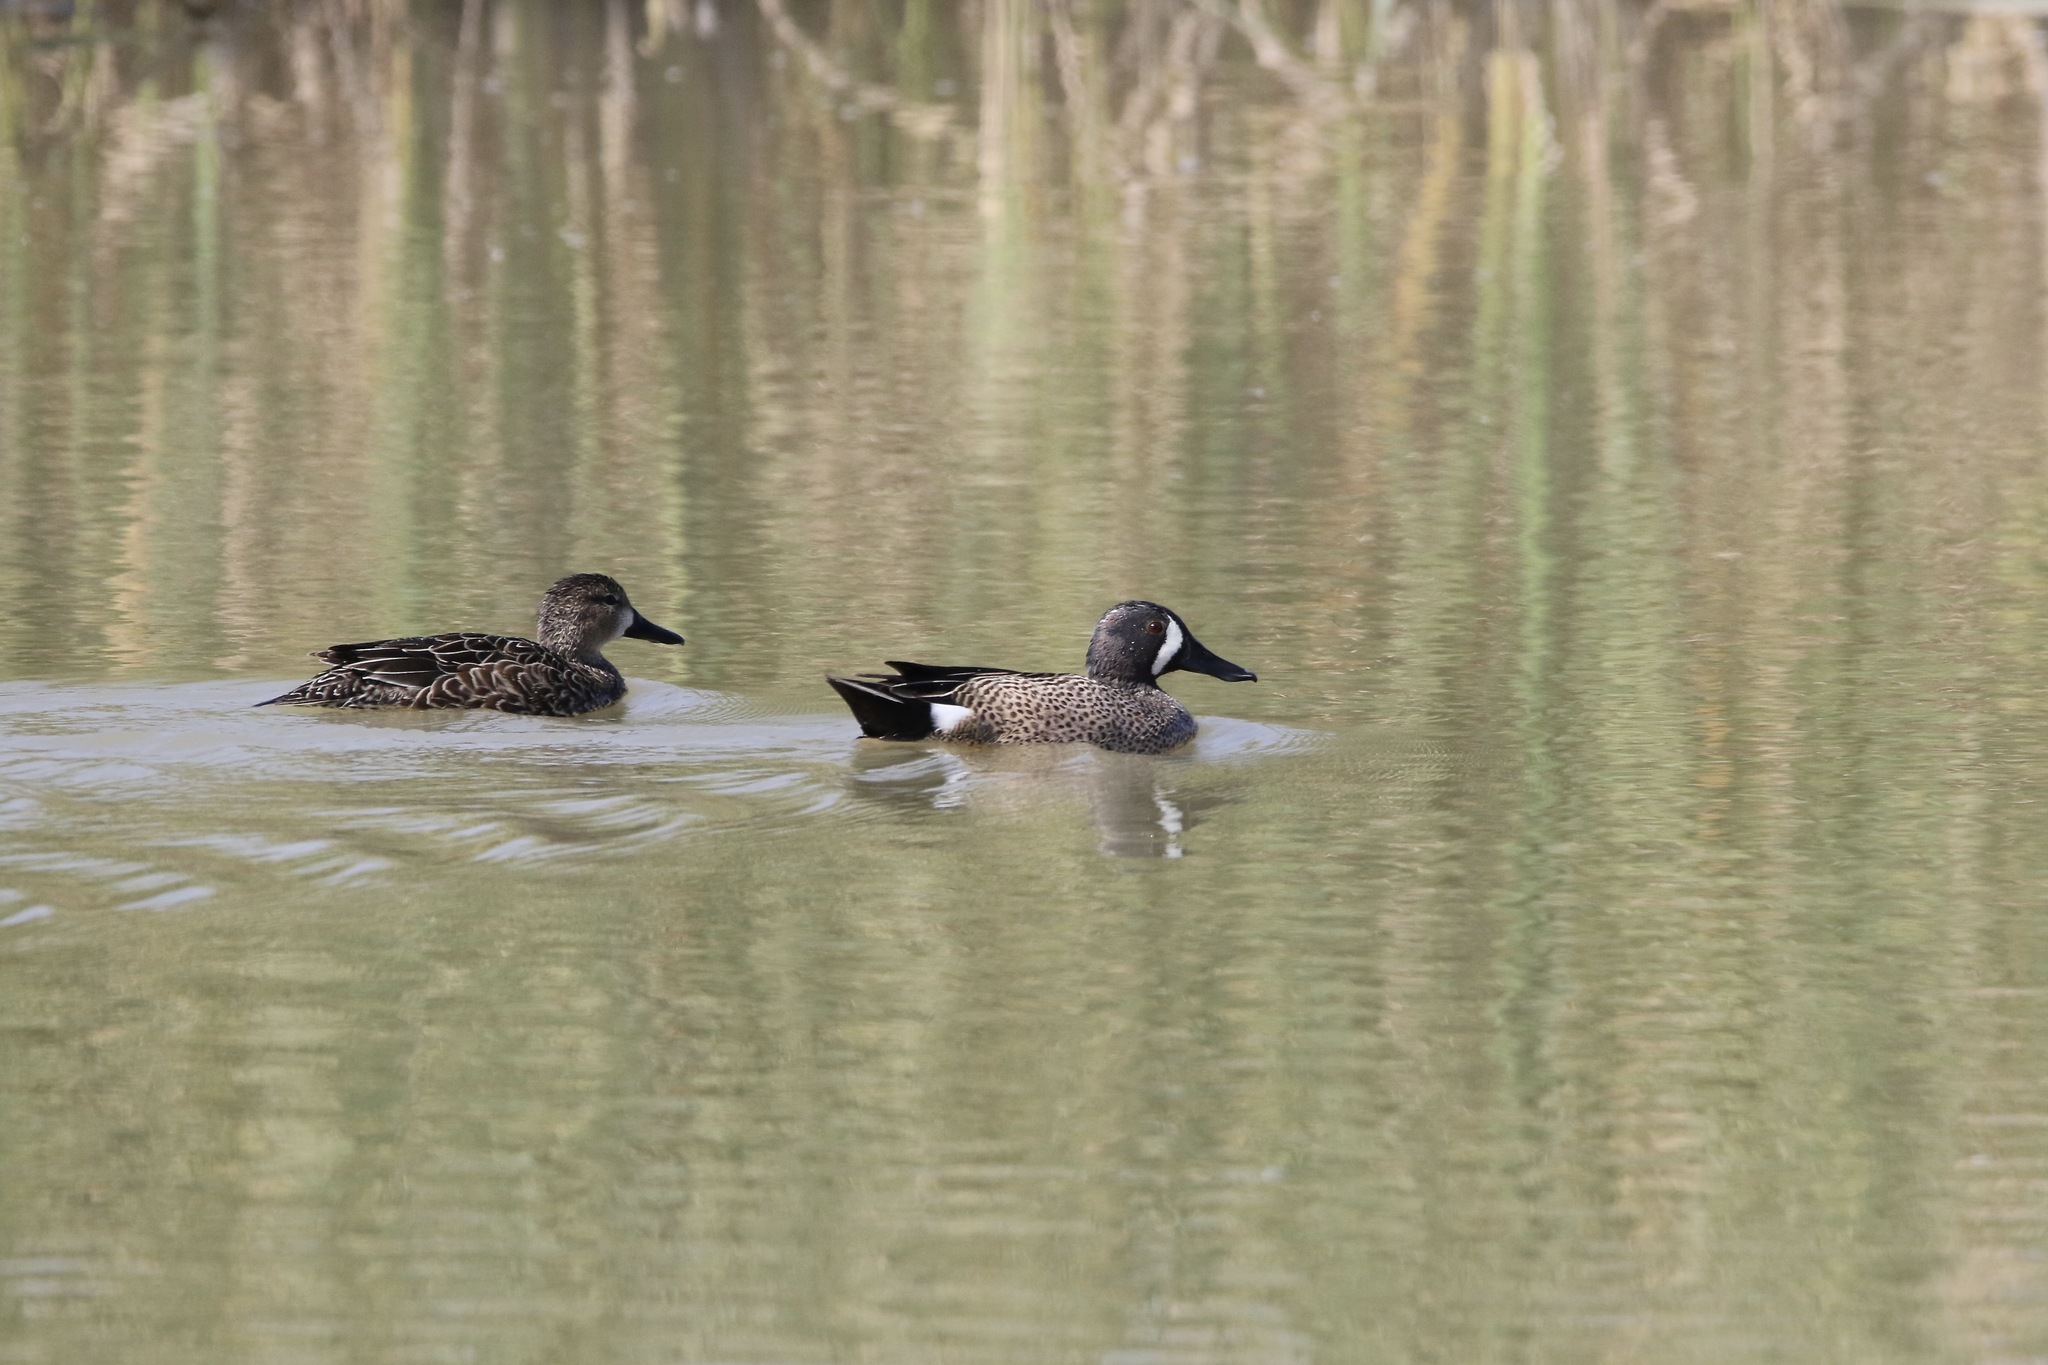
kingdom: Animalia
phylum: Chordata
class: Aves
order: Anseriformes
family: Anatidae
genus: Spatula
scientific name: Spatula discors
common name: Blue-winged teal
